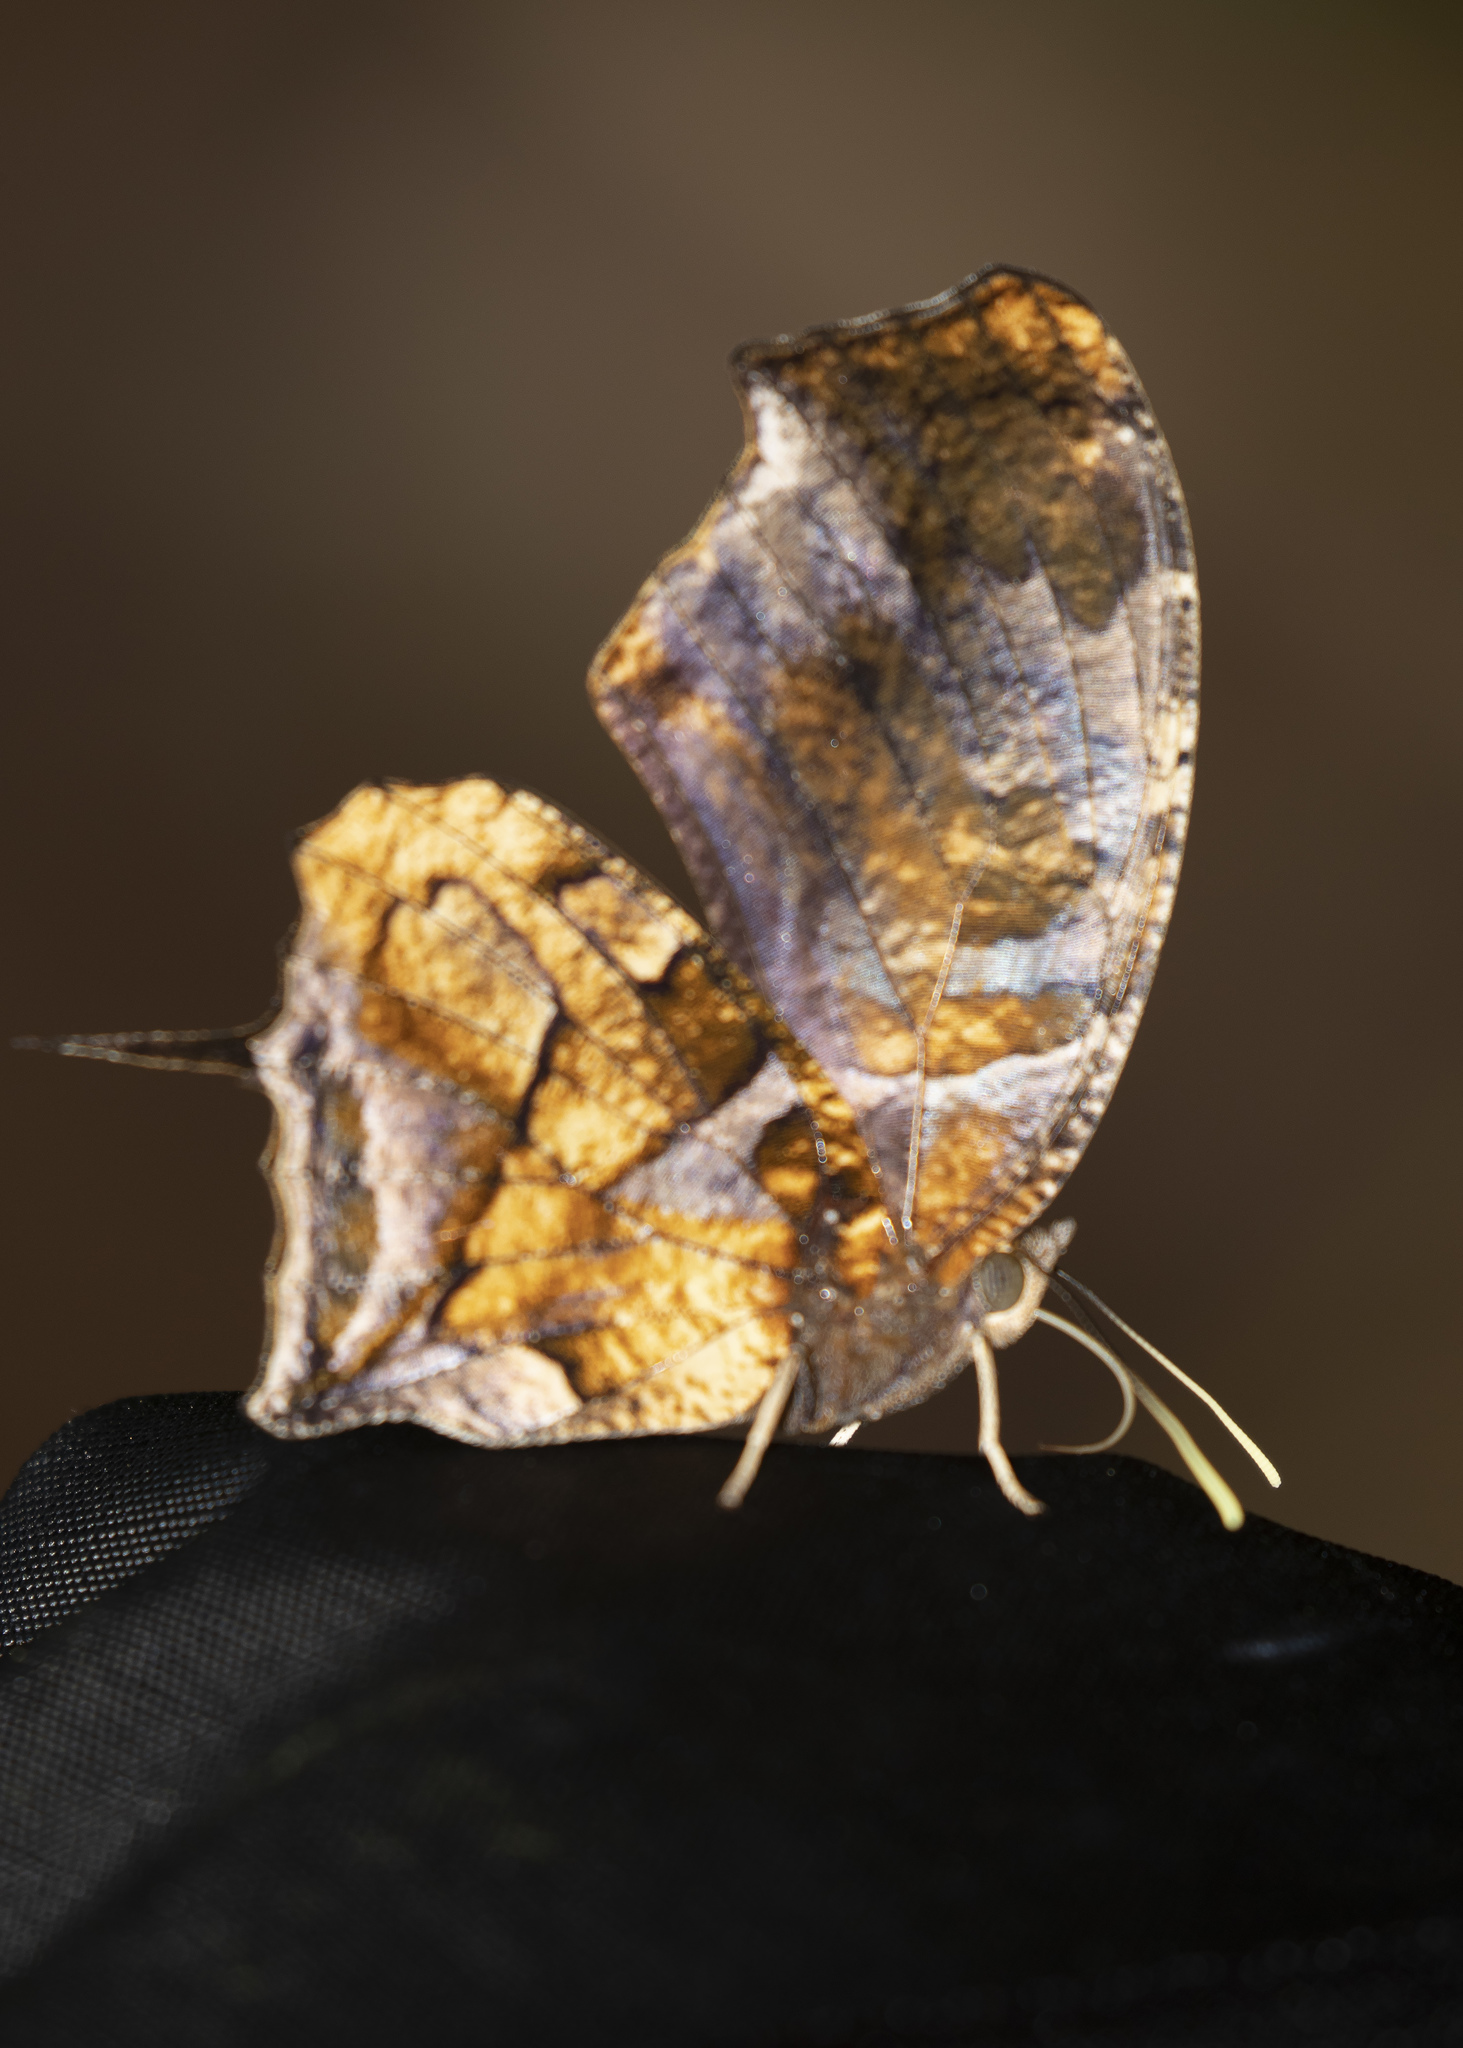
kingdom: Animalia
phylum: Arthropoda
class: Insecta
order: Lepidoptera
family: Nymphalidae
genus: Consul
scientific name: Consul fabius
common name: Tiger leafwing
